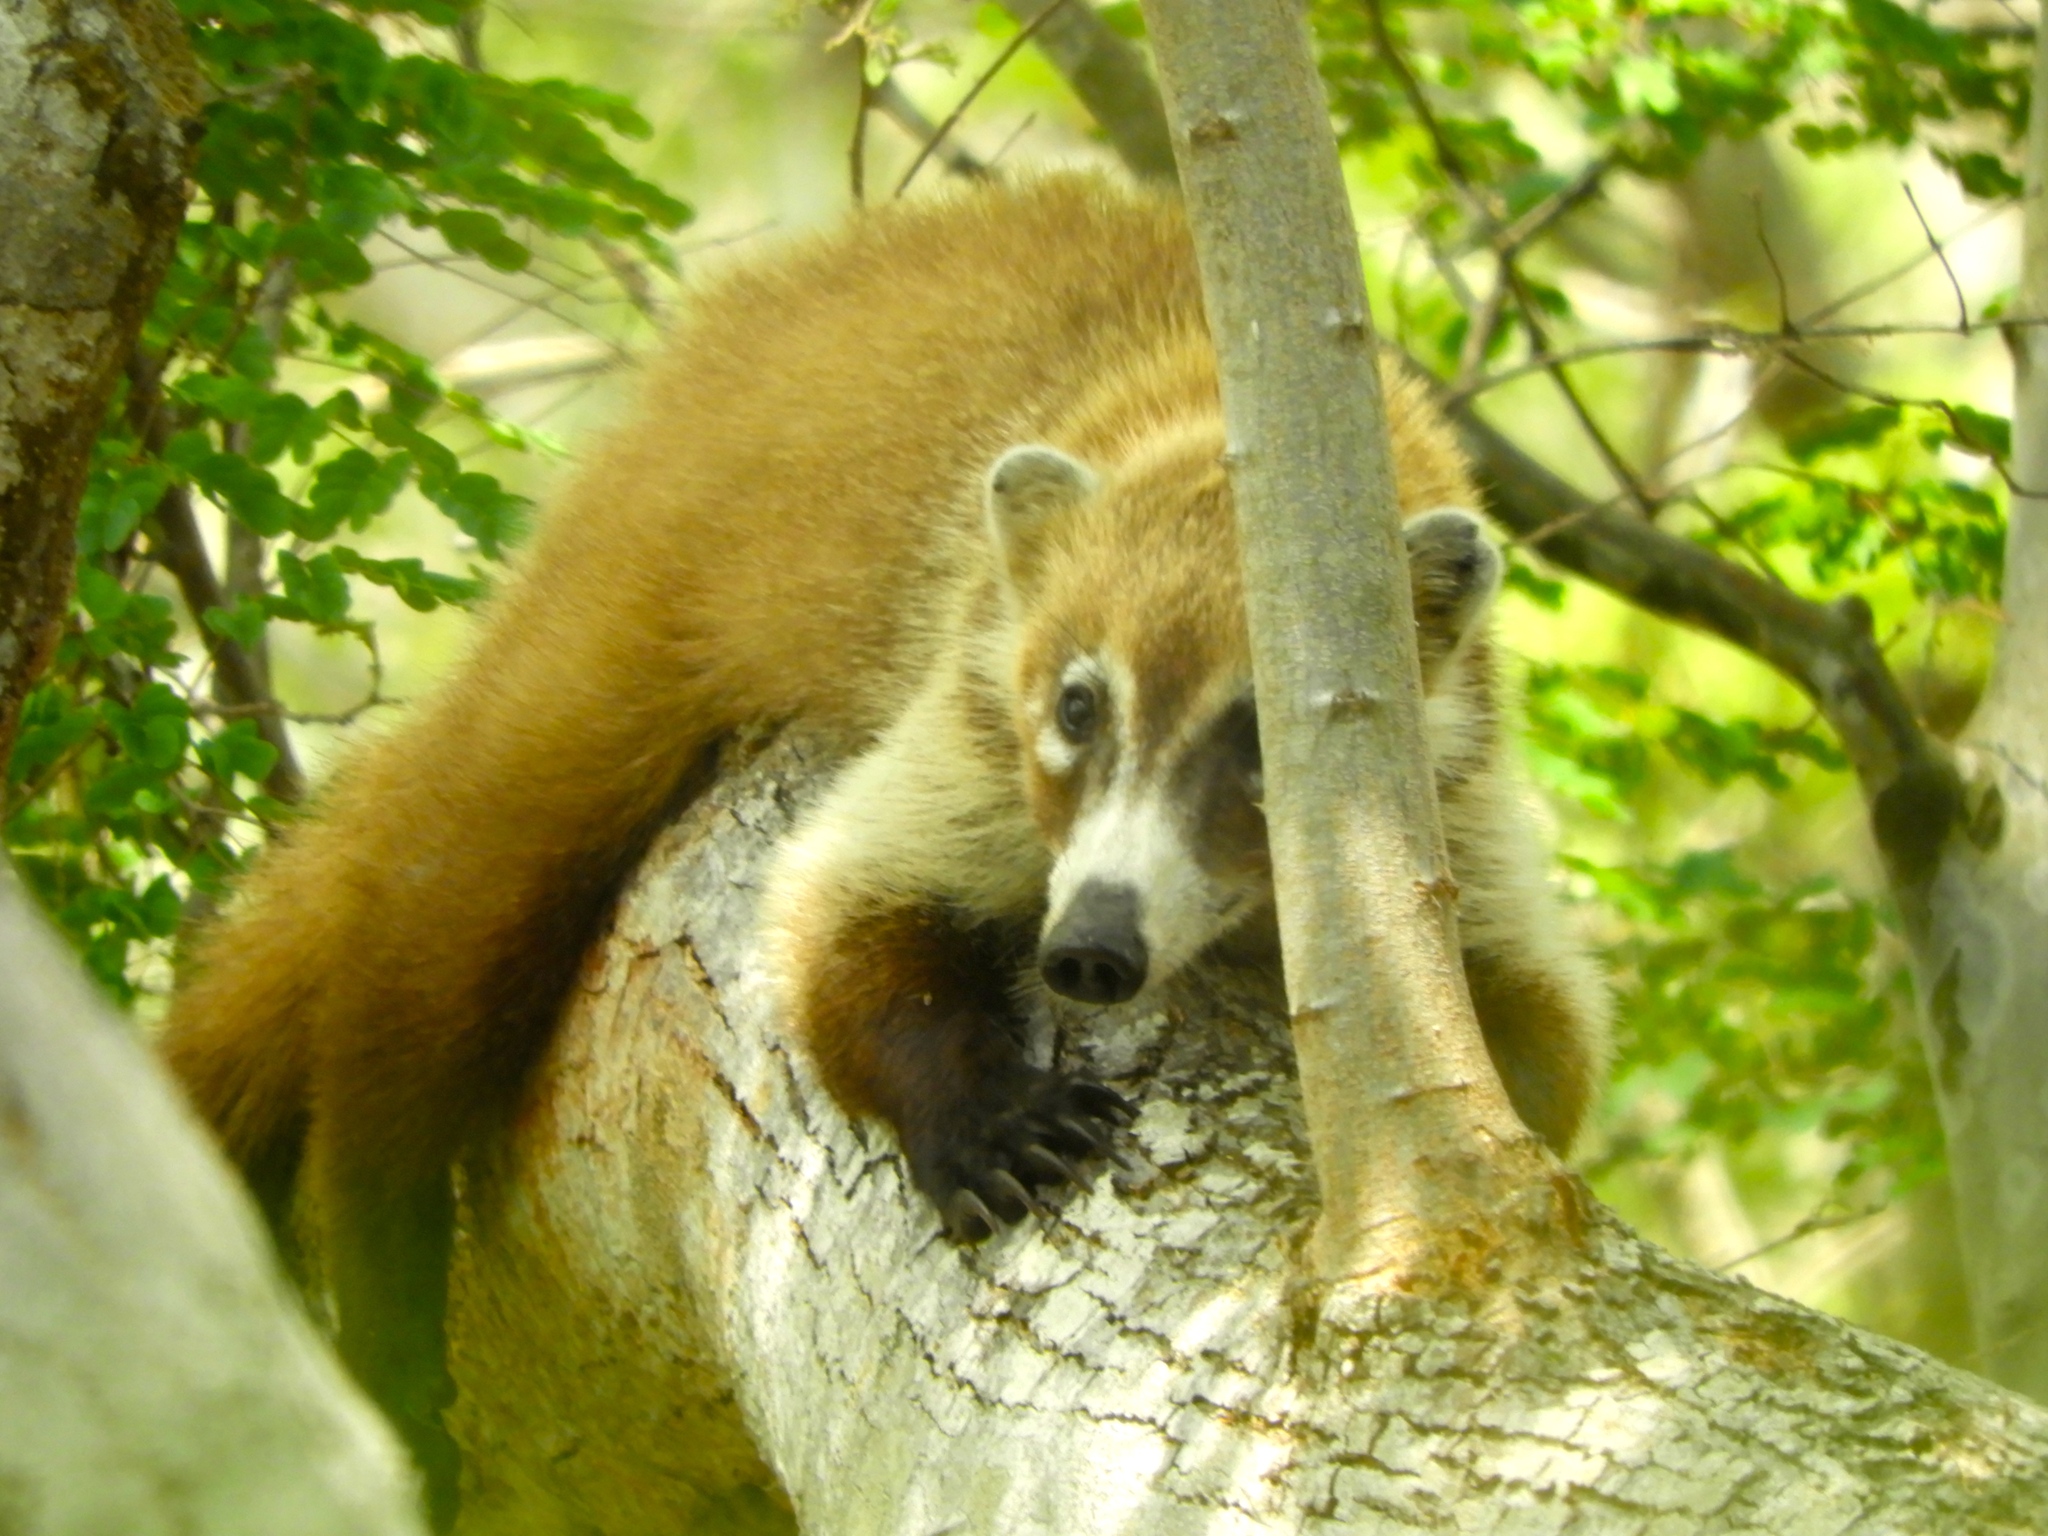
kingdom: Animalia
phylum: Chordata
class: Mammalia
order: Carnivora
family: Procyonidae
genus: Nasua
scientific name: Nasua narica
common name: White-nosed coati
